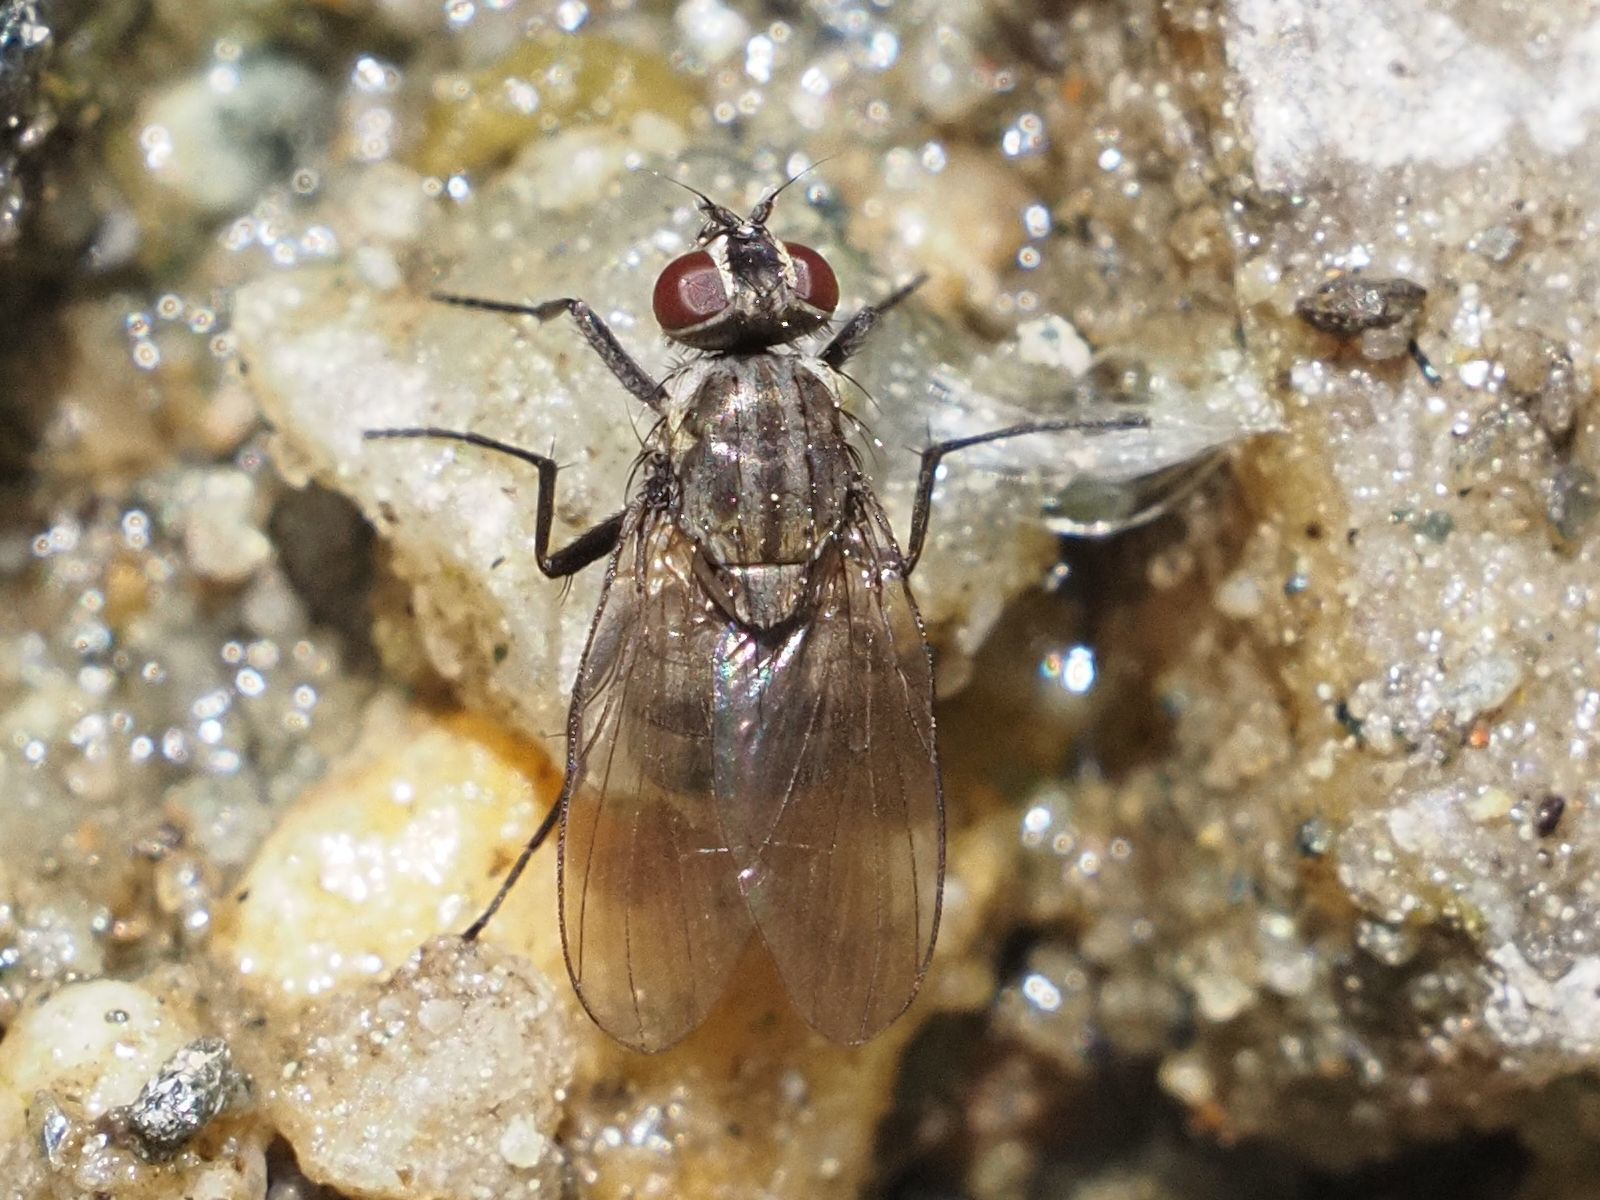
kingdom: Animalia
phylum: Arthropoda
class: Insecta
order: Diptera
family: Muscidae
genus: Limnophora
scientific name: Limnophora maculosa
